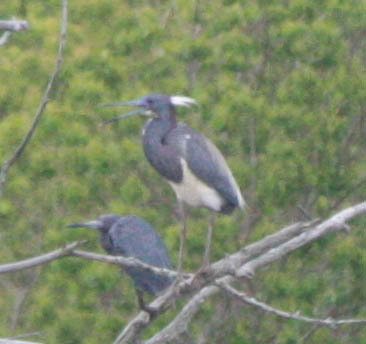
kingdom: Animalia
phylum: Chordata
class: Aves
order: Pelecaniformes
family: Ardeidae
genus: Egretta
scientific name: Egretta tricolor
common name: Tricolored heron
